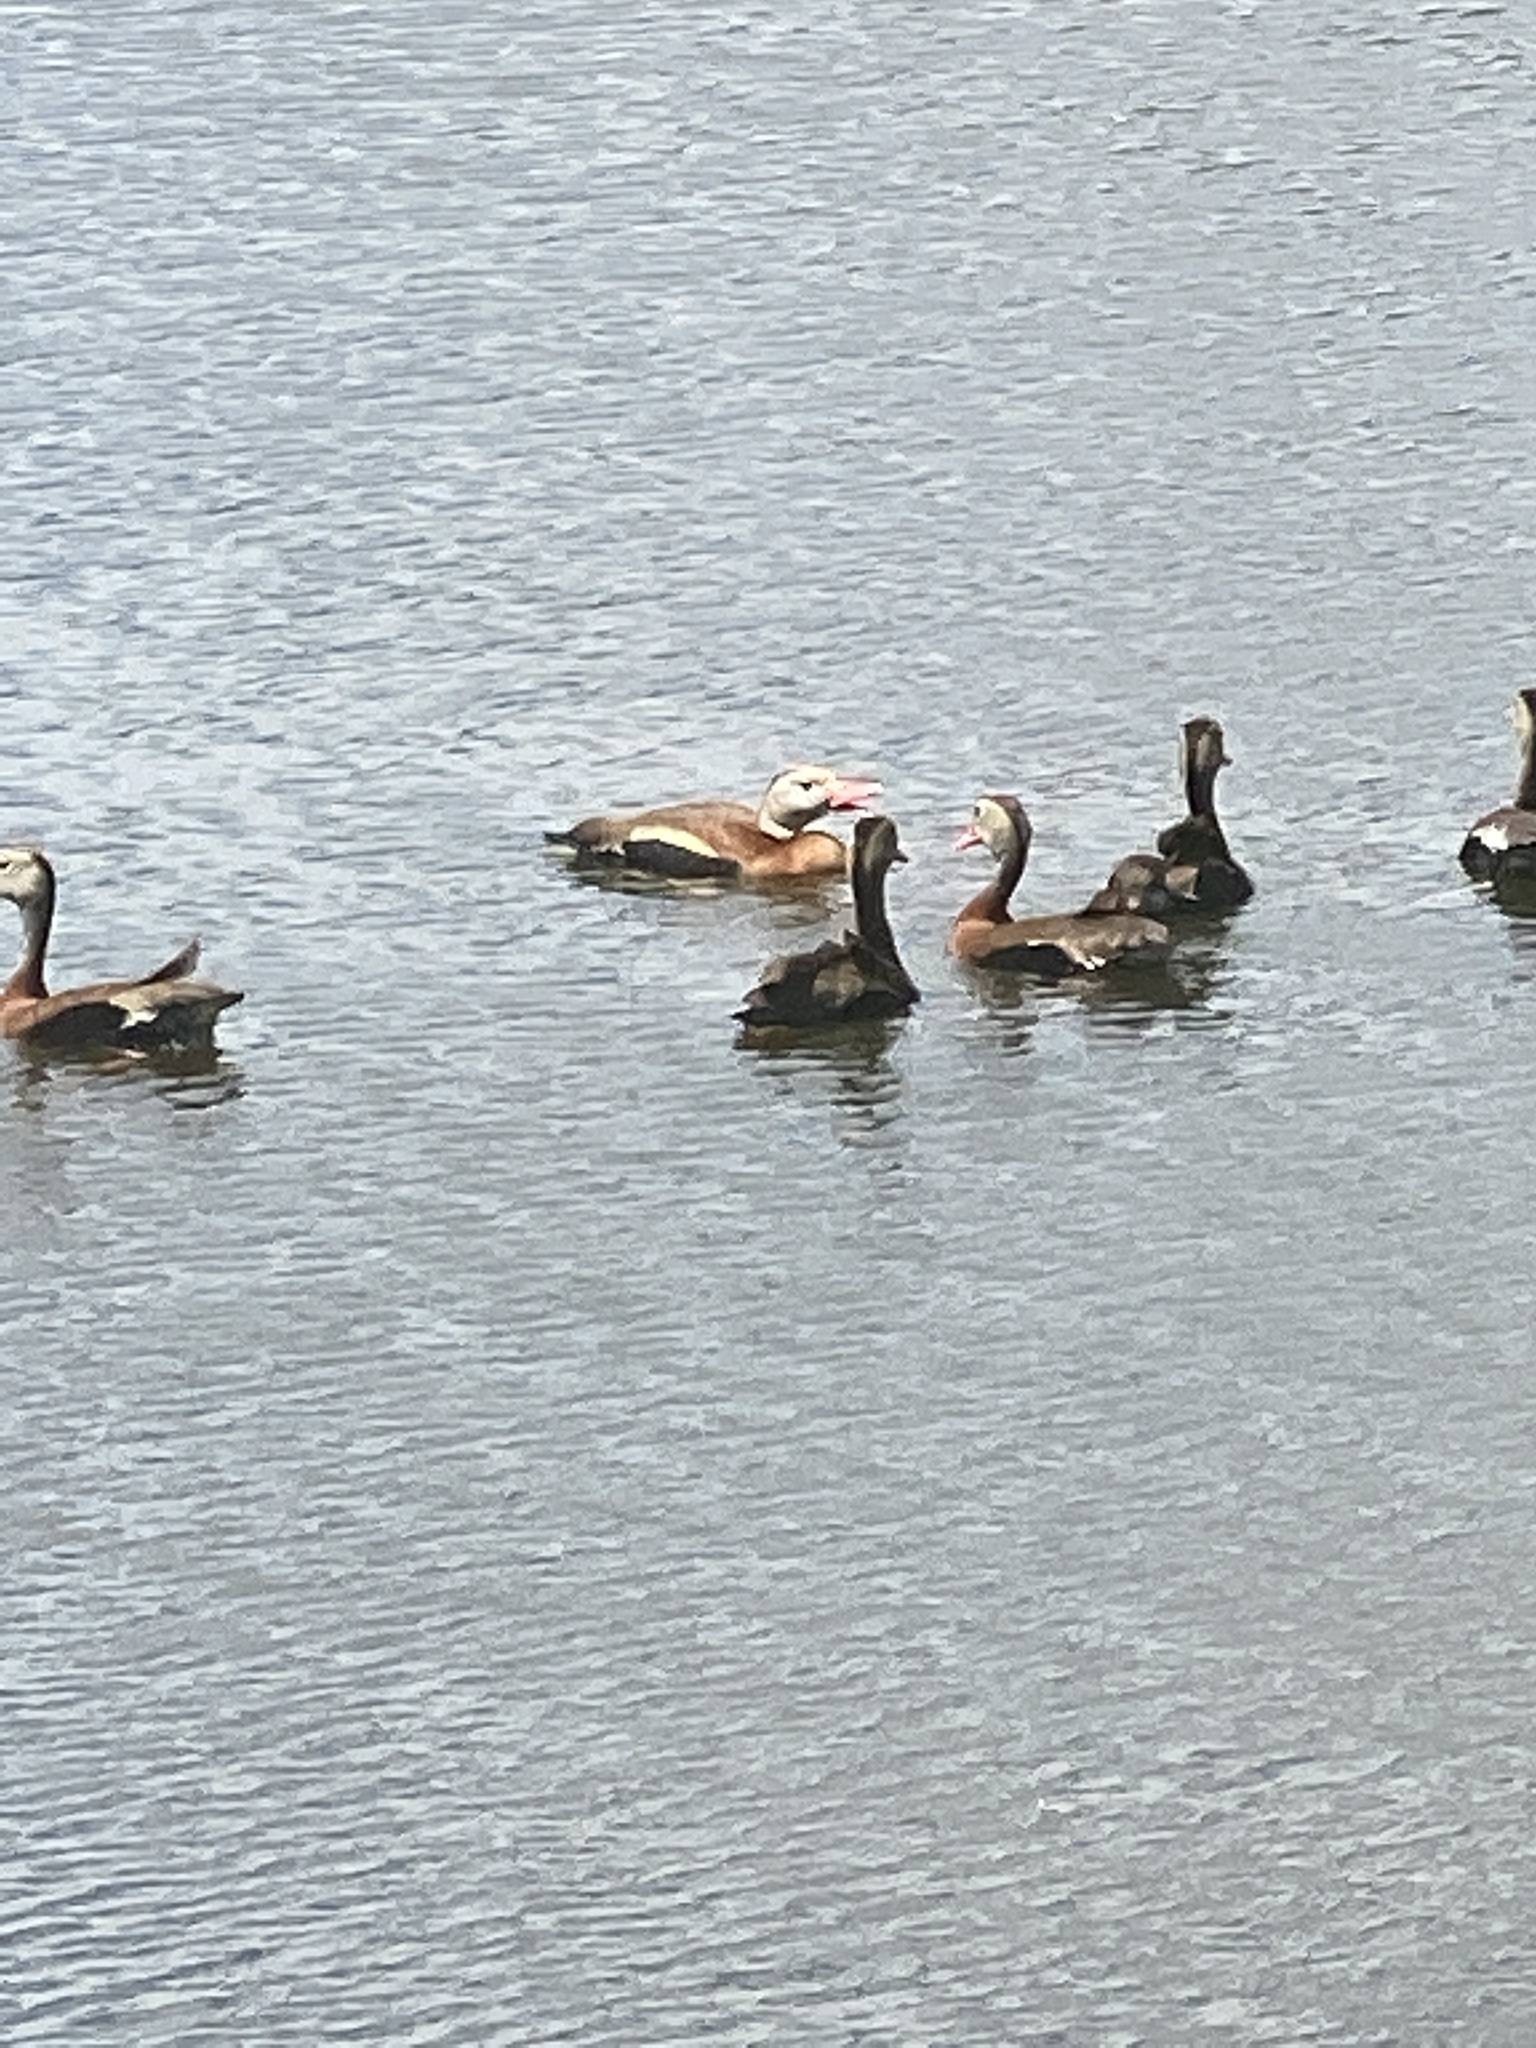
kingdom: Animalia
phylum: Chordata
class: Aves
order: Anseriformes
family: Anatidae
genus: Dendrocygna
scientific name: Dendrocygna autumnalis
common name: Black-bellied whistling duck
